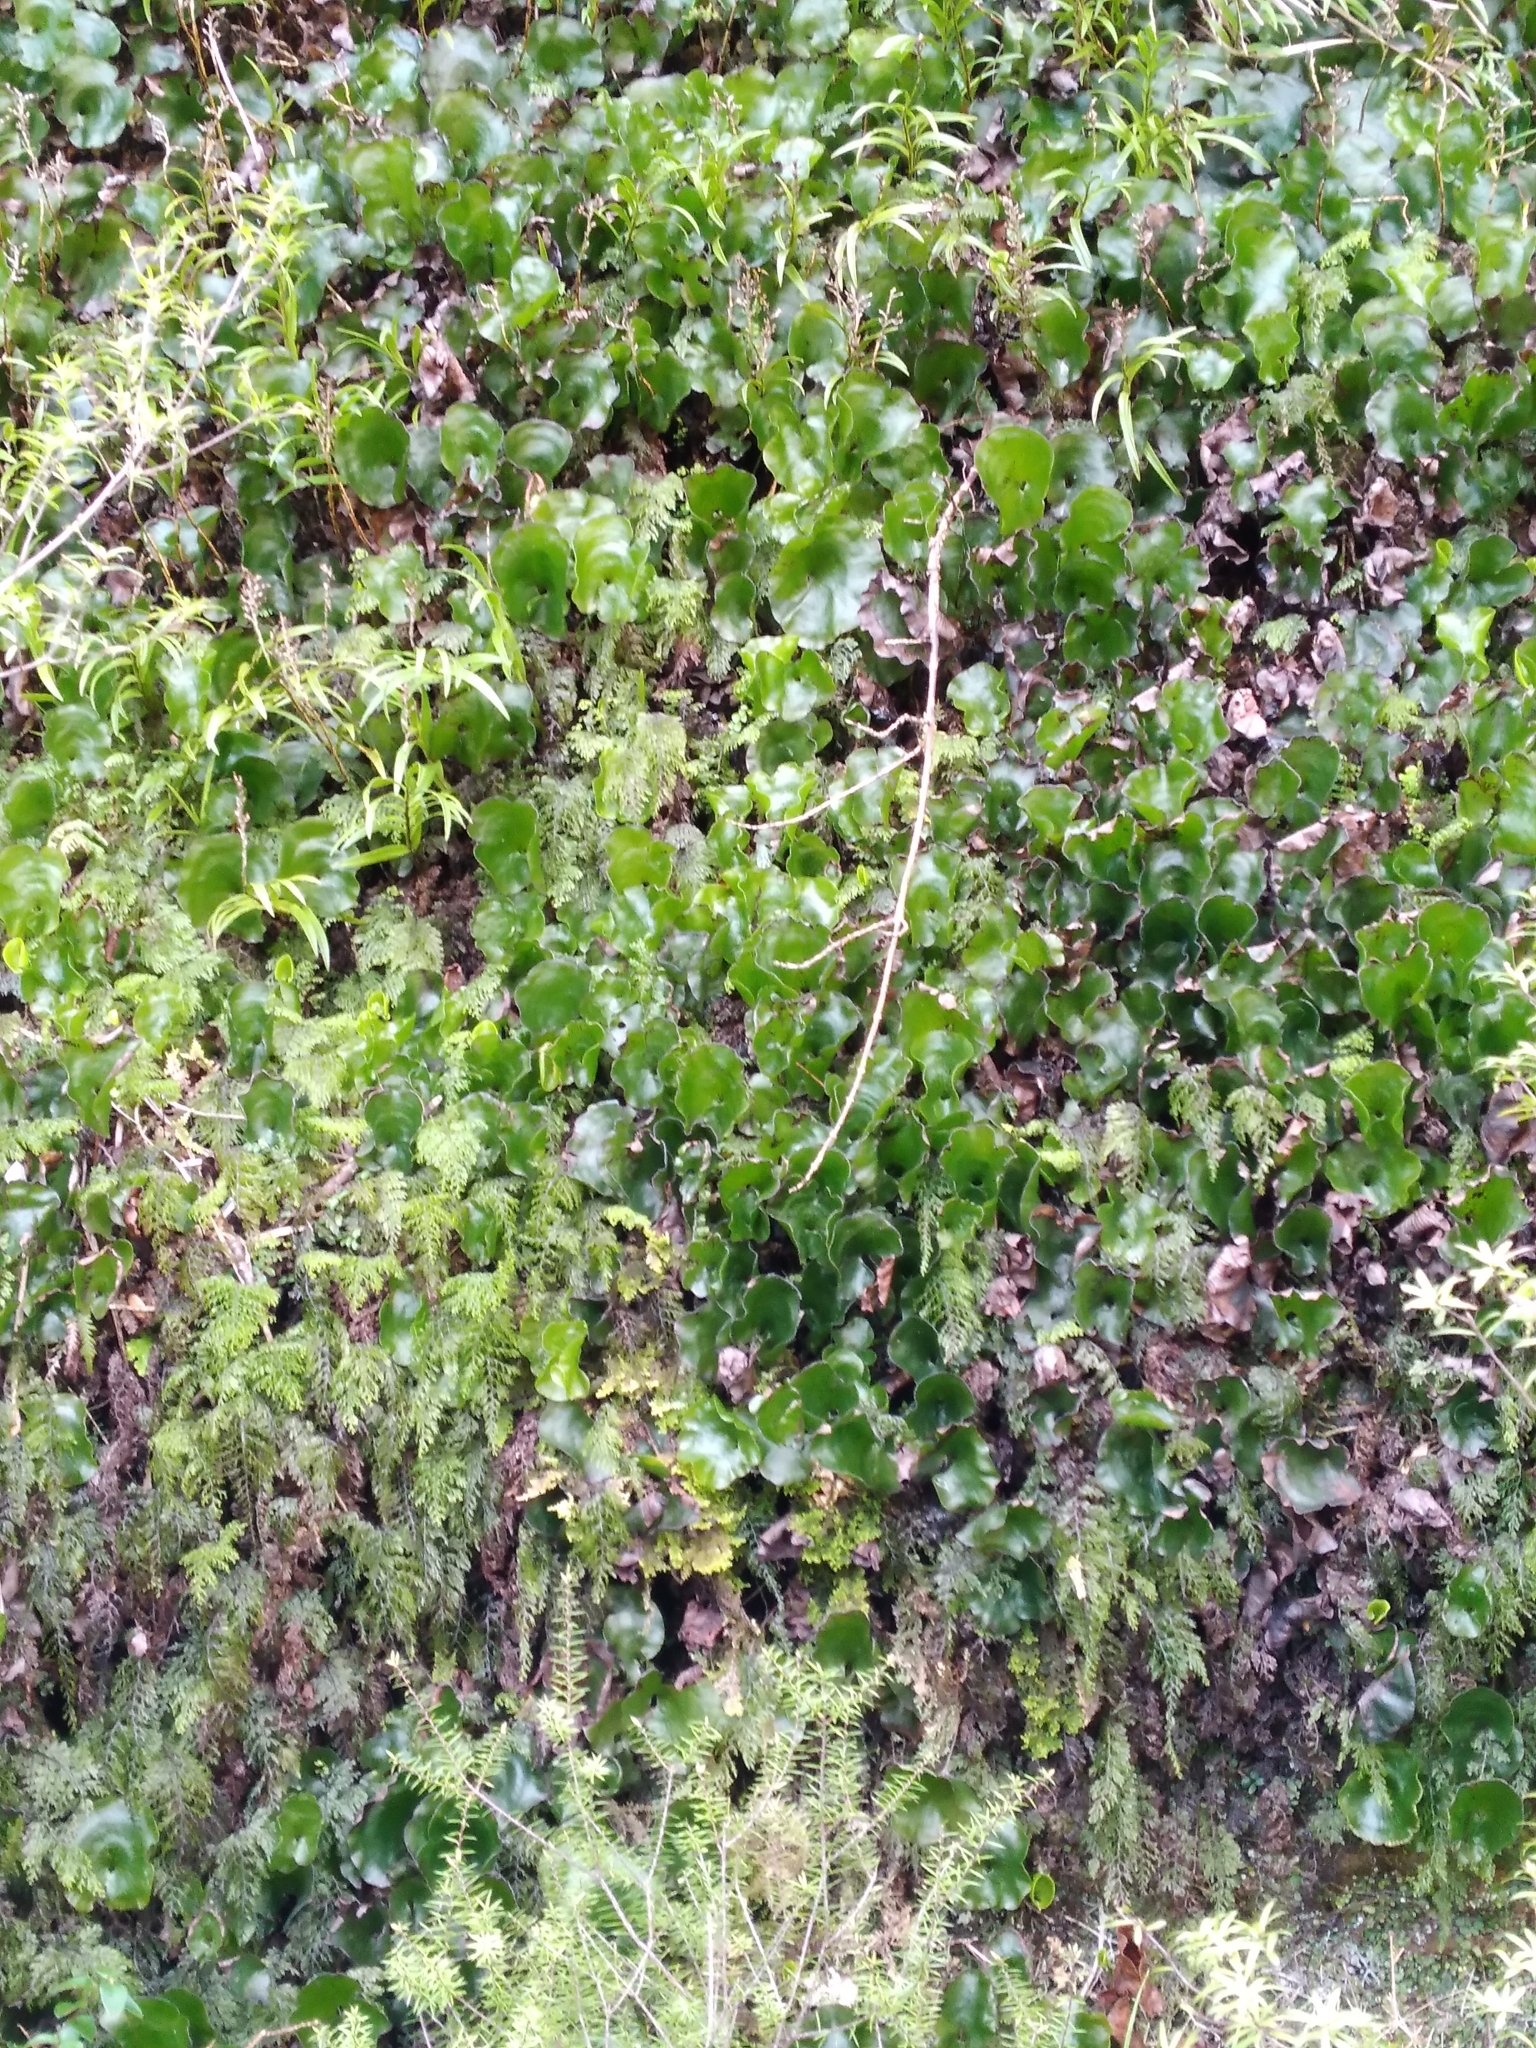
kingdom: Plantae
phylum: Tracheophyta
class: Polypodiopsida
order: Hymenophyllales
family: Hymenophyllaceae
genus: Hymenophyllum
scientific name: Hymenophyllum nephrophyllum
